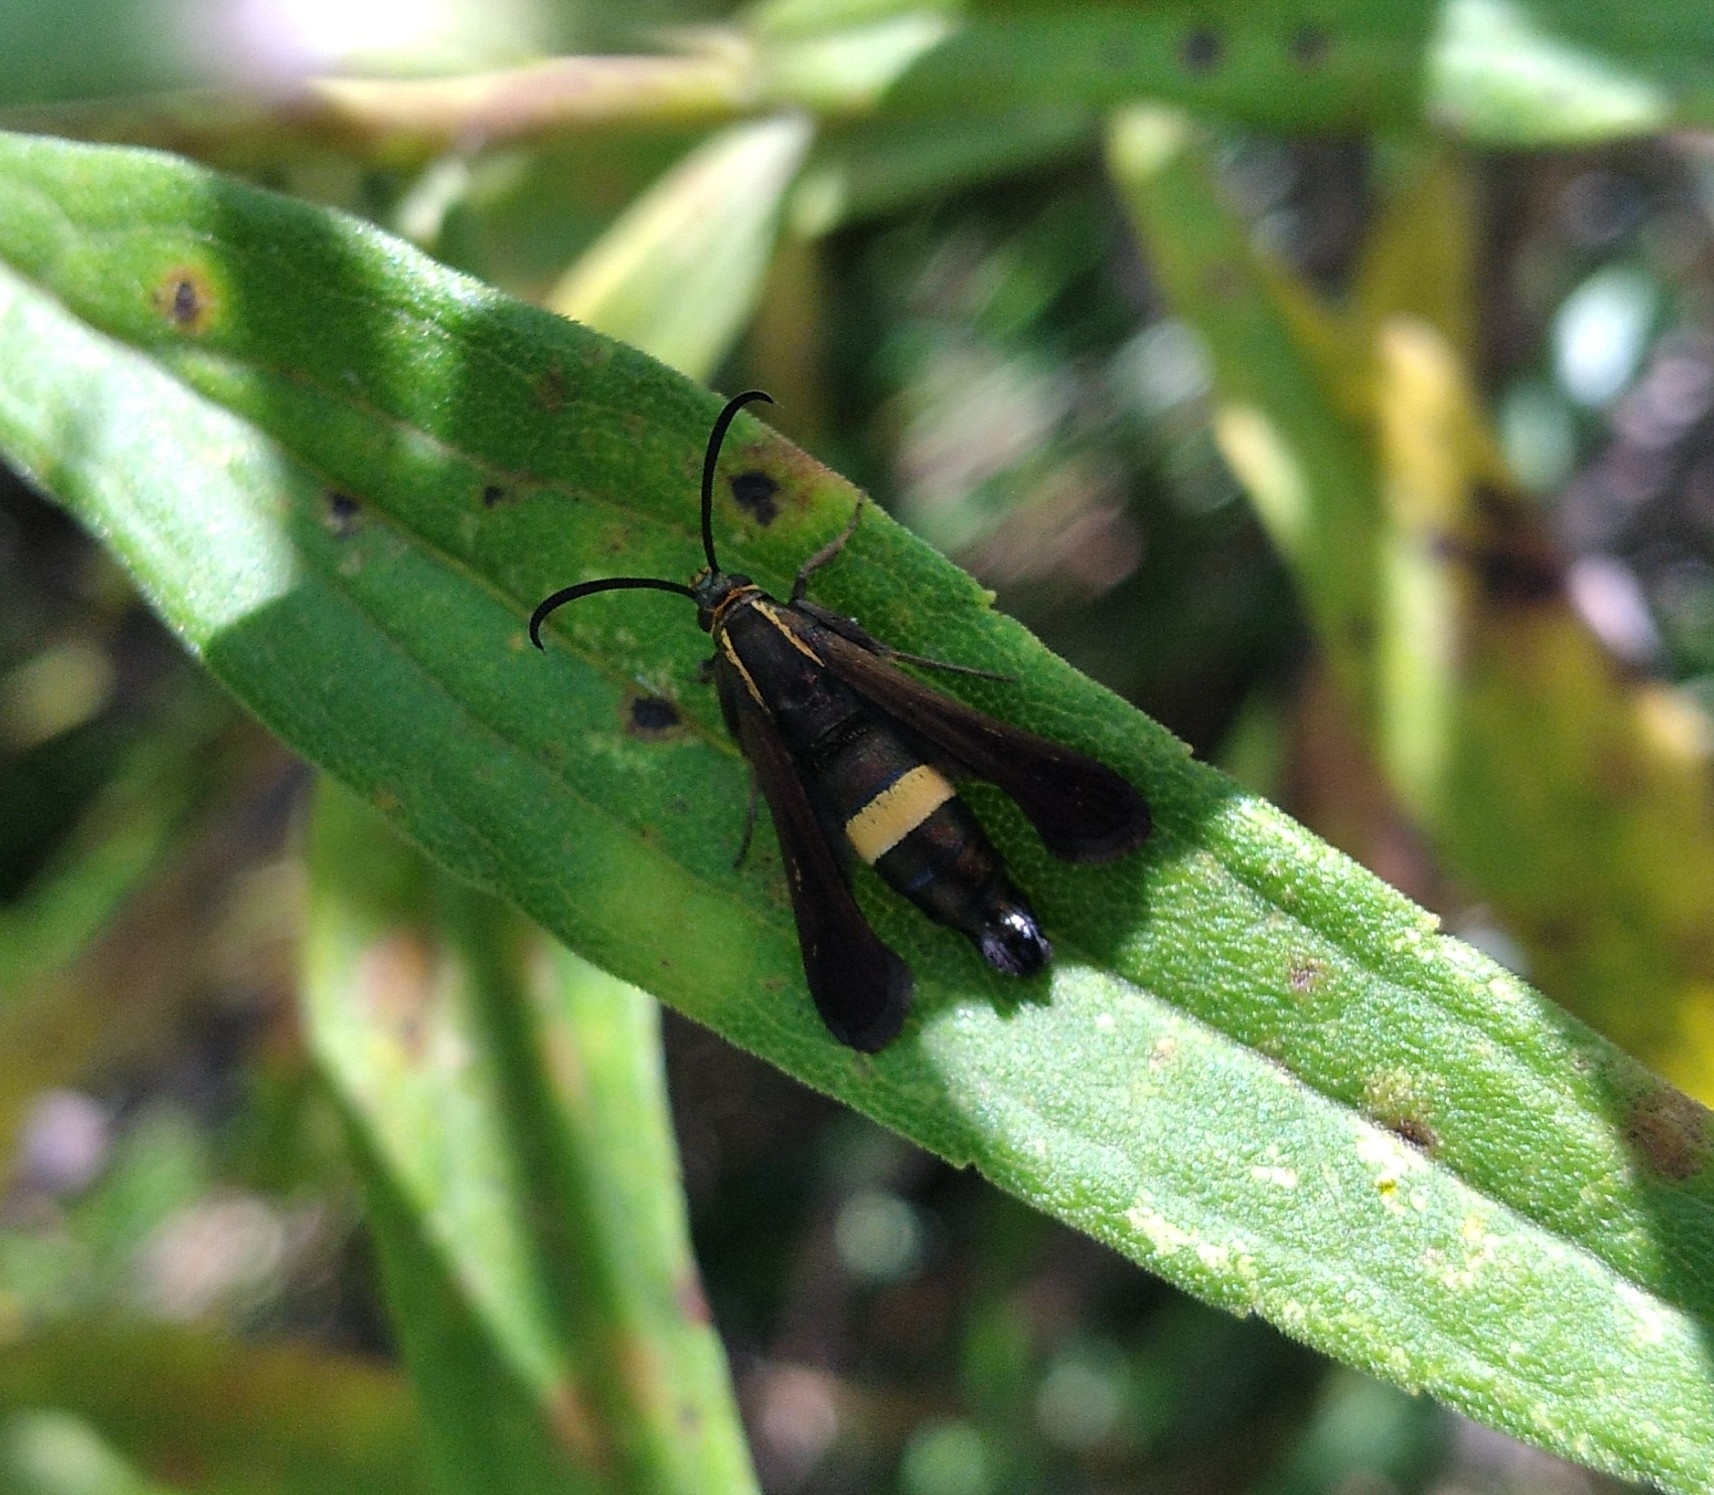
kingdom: Animalia
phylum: Arthropoda
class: Insecta
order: Lepidoptera
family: Sesiidae
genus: Carmenta
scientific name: Carmenta pyralidiformis
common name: Boneset borer moth
